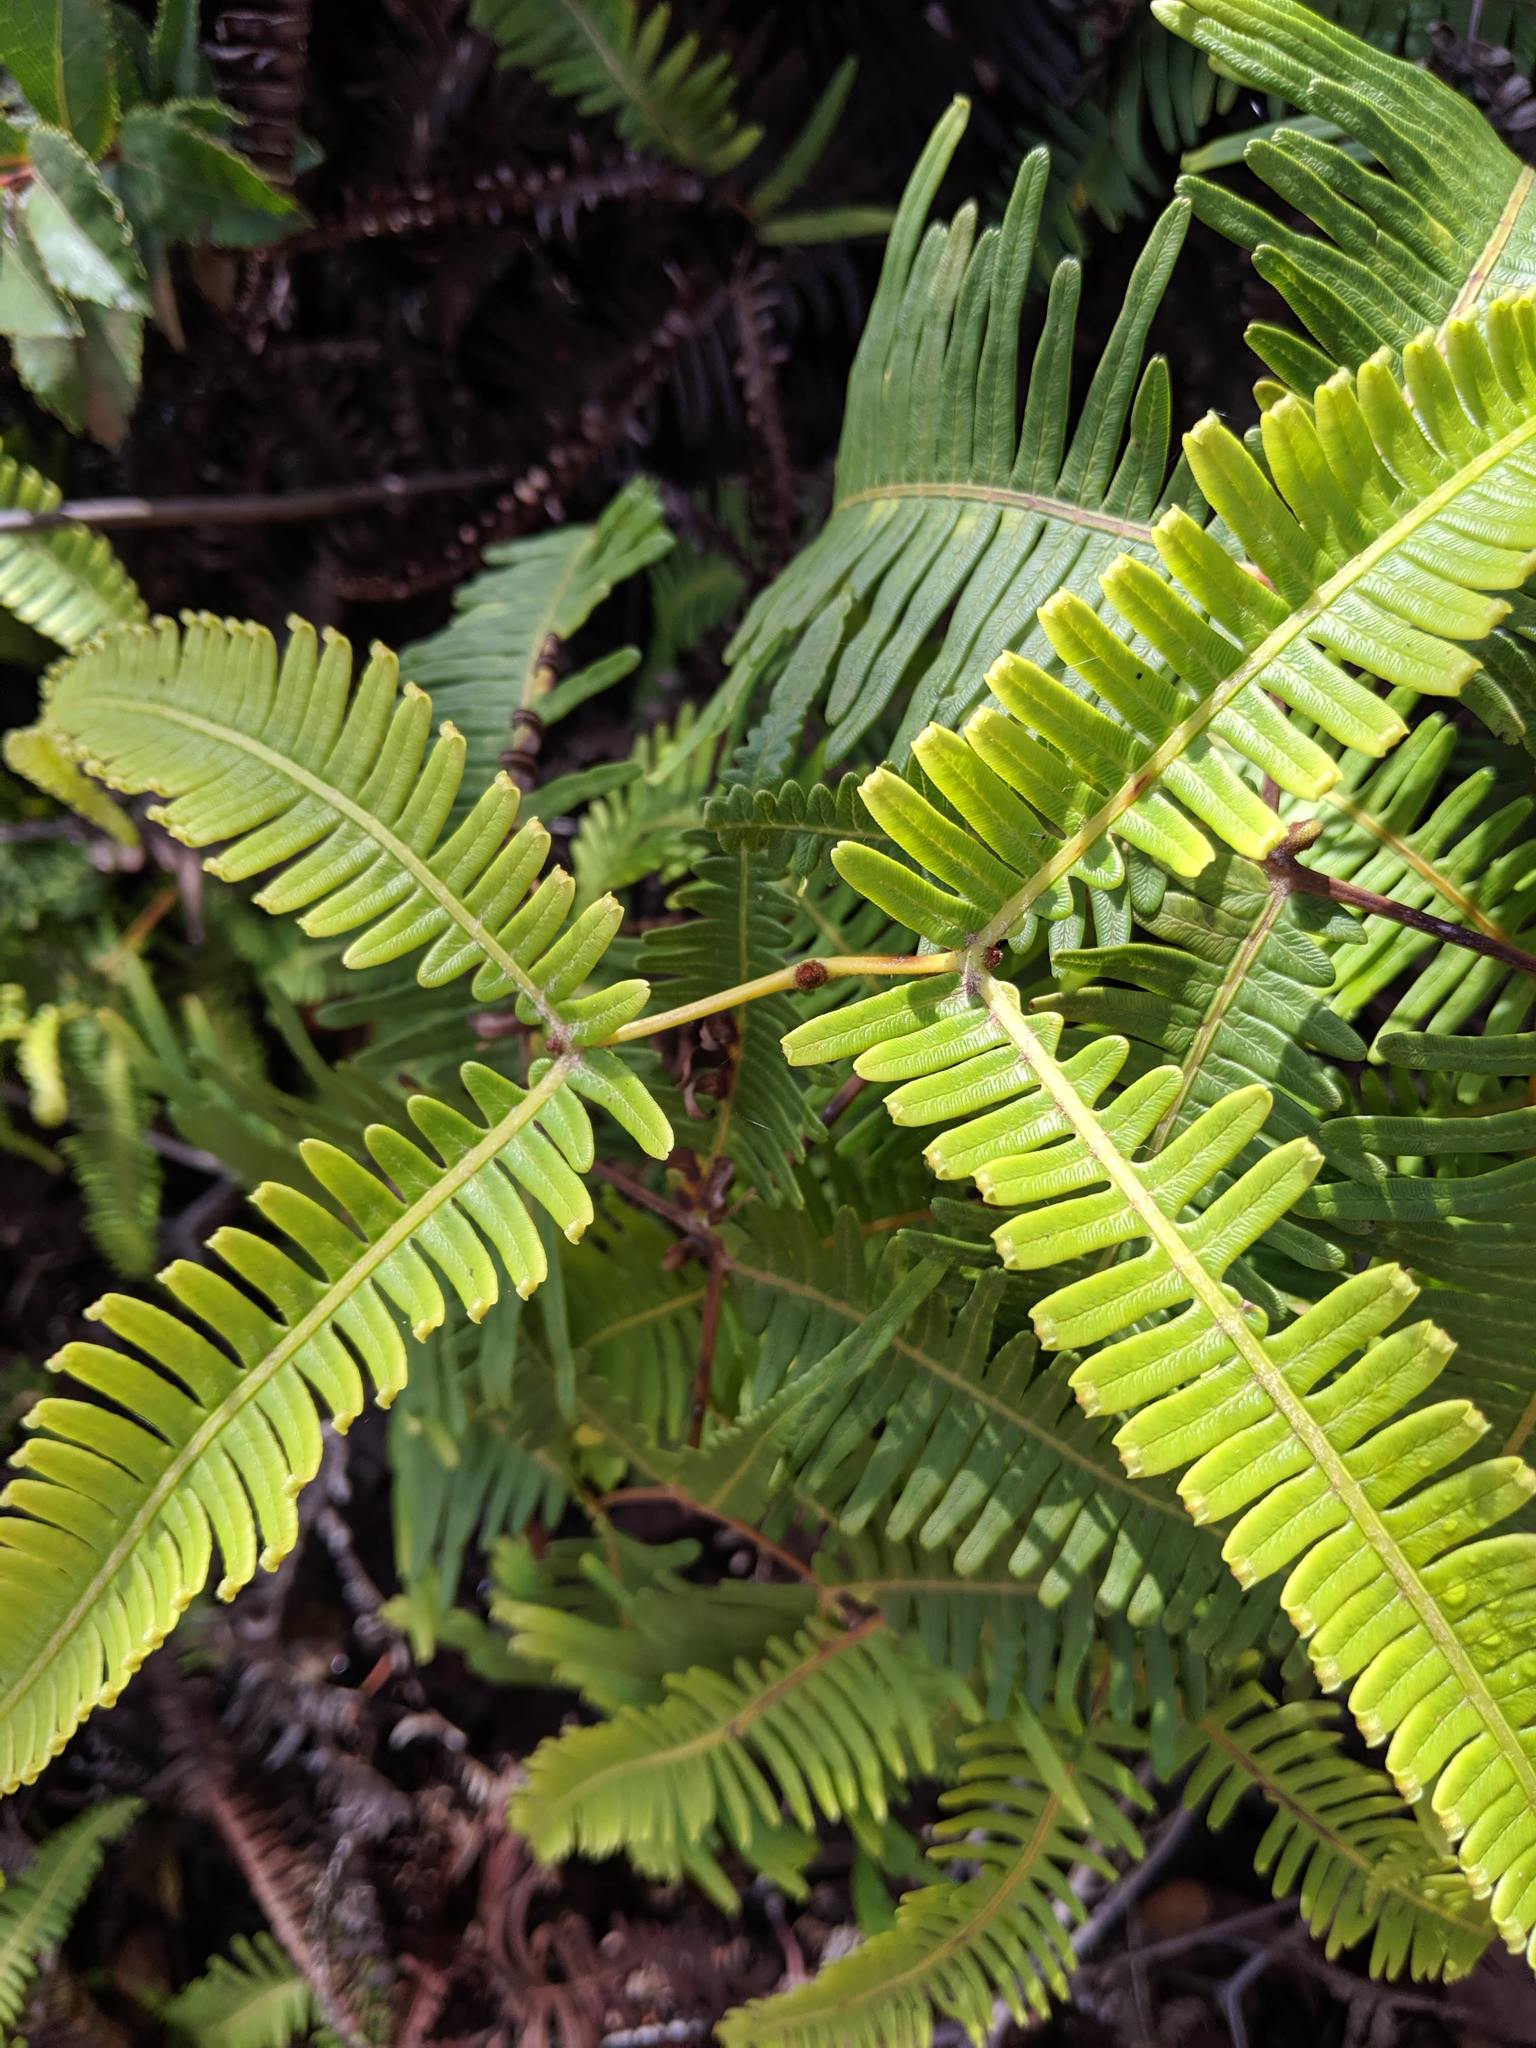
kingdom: Plantae
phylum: Tracheophyta
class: Polypodiopsida
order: Gleicheniales
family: Gleicheniaceae
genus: Dicranopteris
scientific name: Dicranopteris linearis
